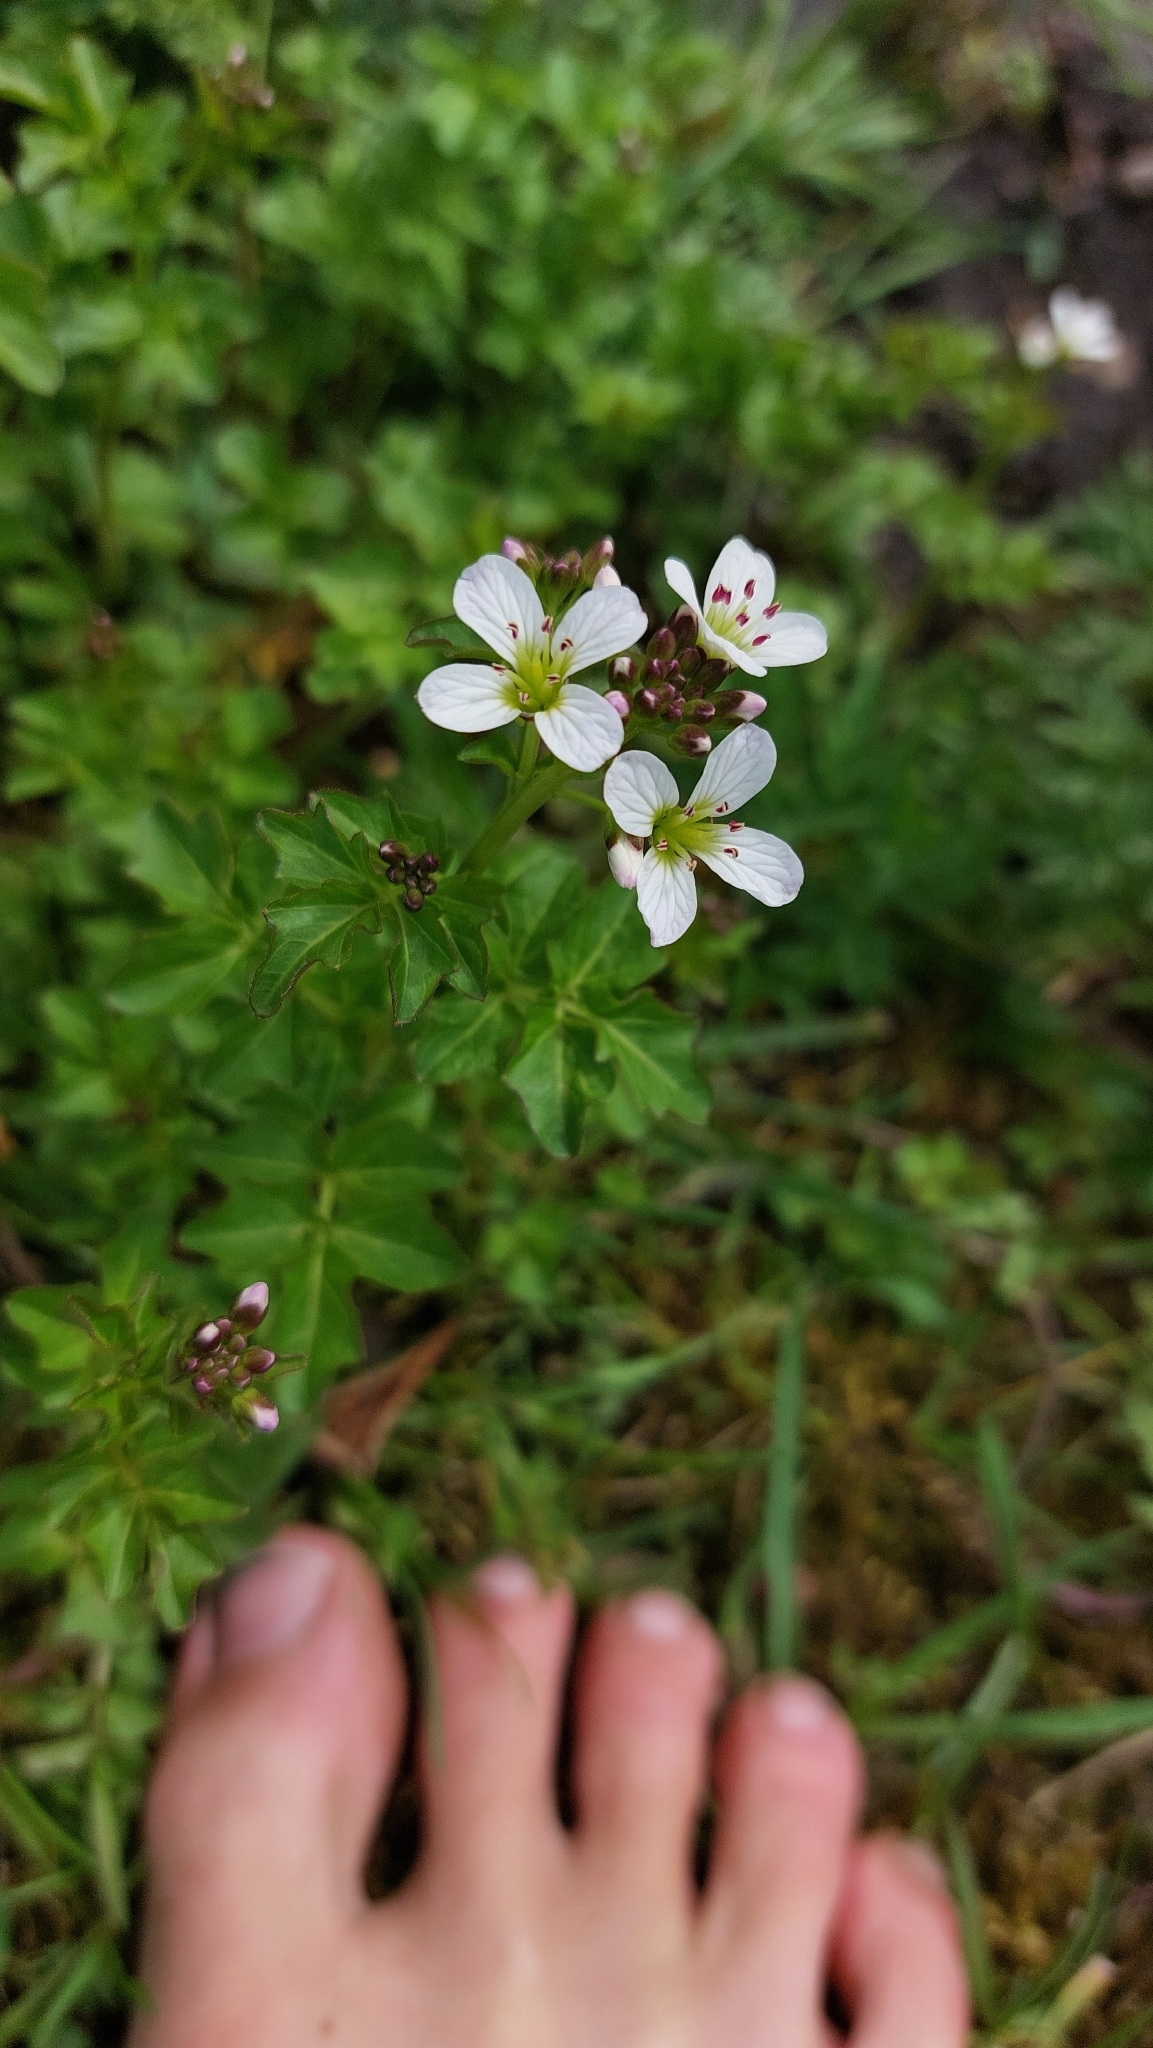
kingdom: Plantae
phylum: Tracheophyta
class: Magnoliopsida
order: Brassicales
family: Brassicaceae
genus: Cardamine
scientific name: Cardamine amara
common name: Large bitter-cress
